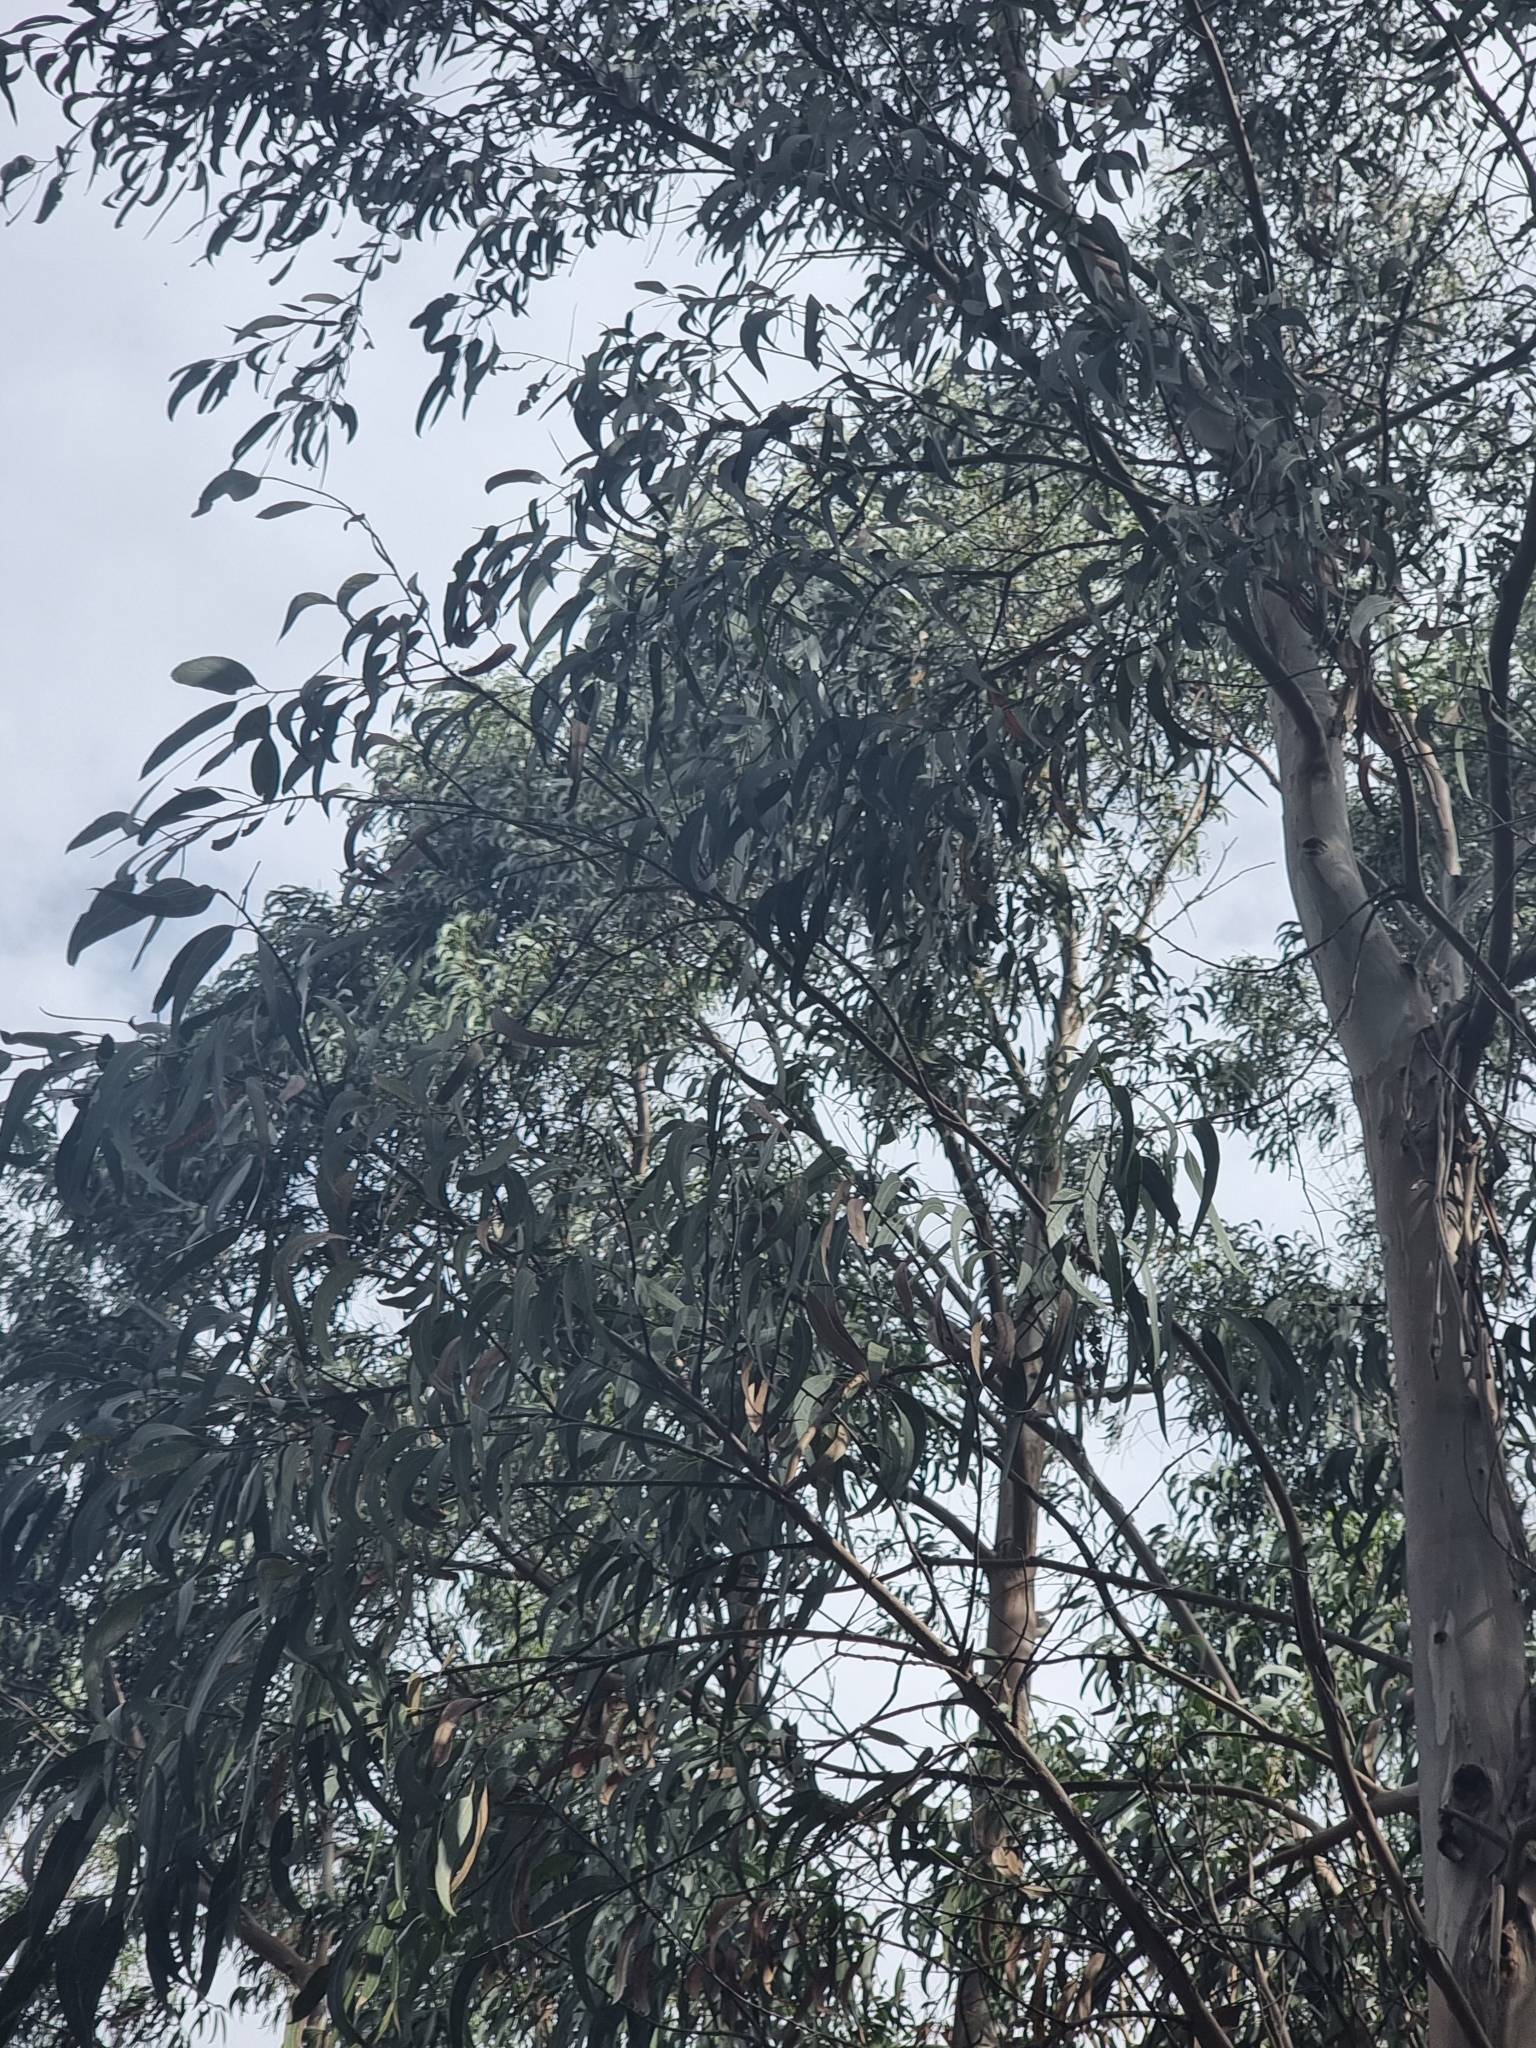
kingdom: Plantae
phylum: Tracheophyta
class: Magnoliopsida
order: Myrtales
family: Myrtaceae
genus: Eucalyptus
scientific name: Eucalyptus globulus
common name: Southern blue-gum
